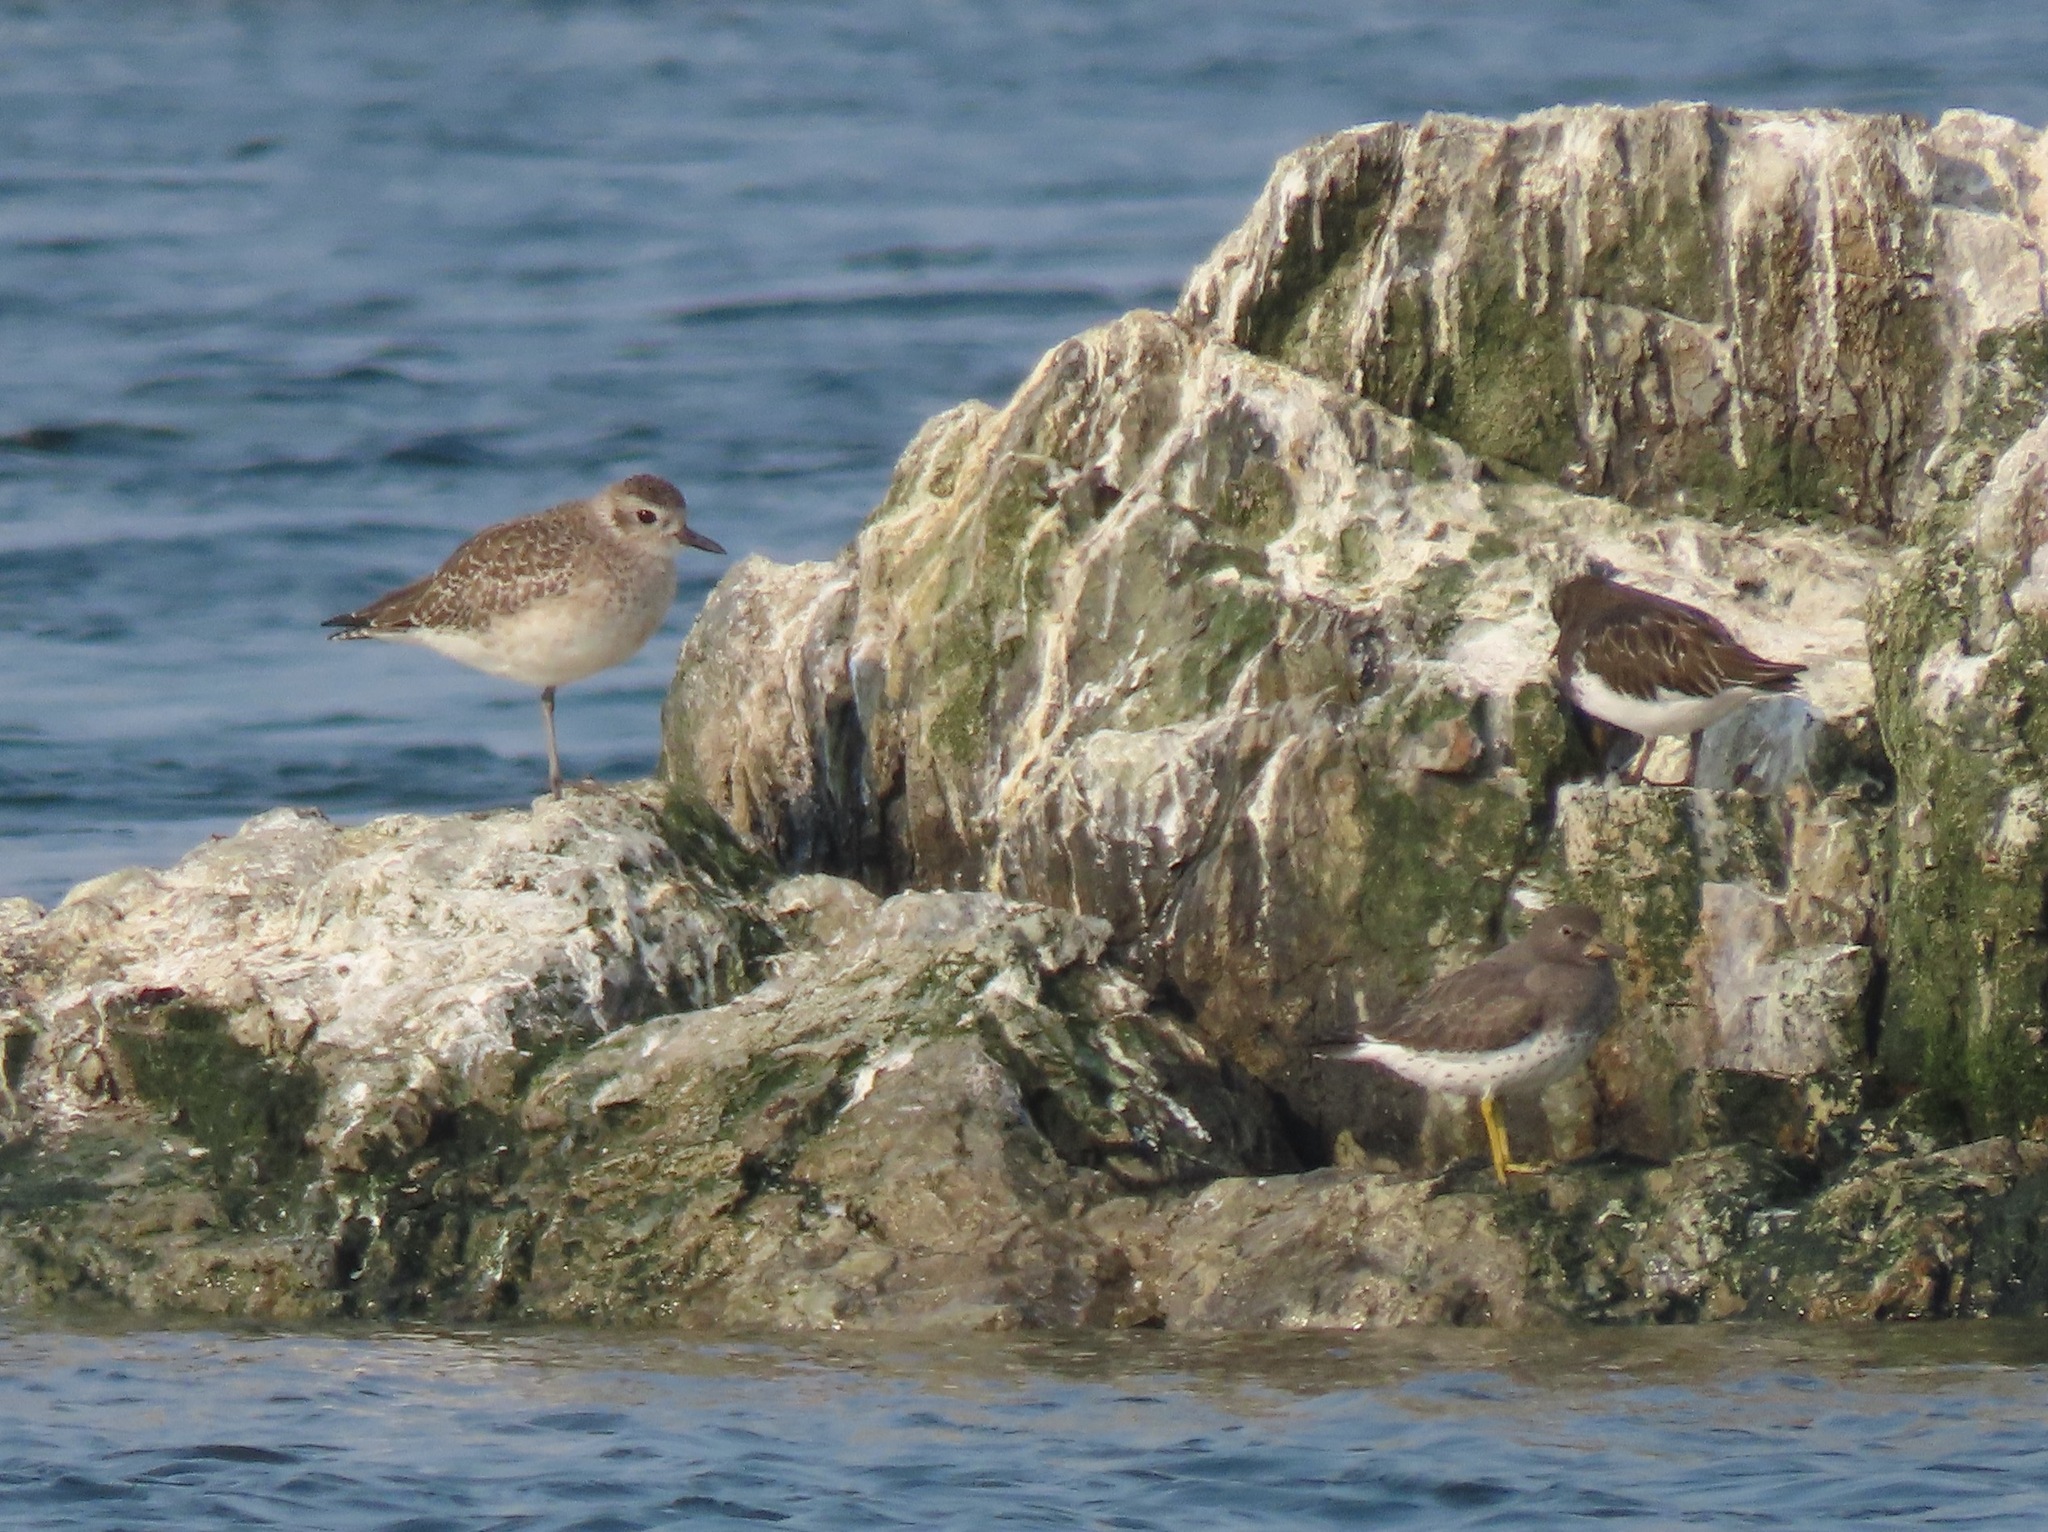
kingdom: Animalia
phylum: Chordata
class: Aves
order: Charadriiformes
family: Scolopacidae
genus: Calidris
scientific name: Calidris virgata
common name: Surfbird
